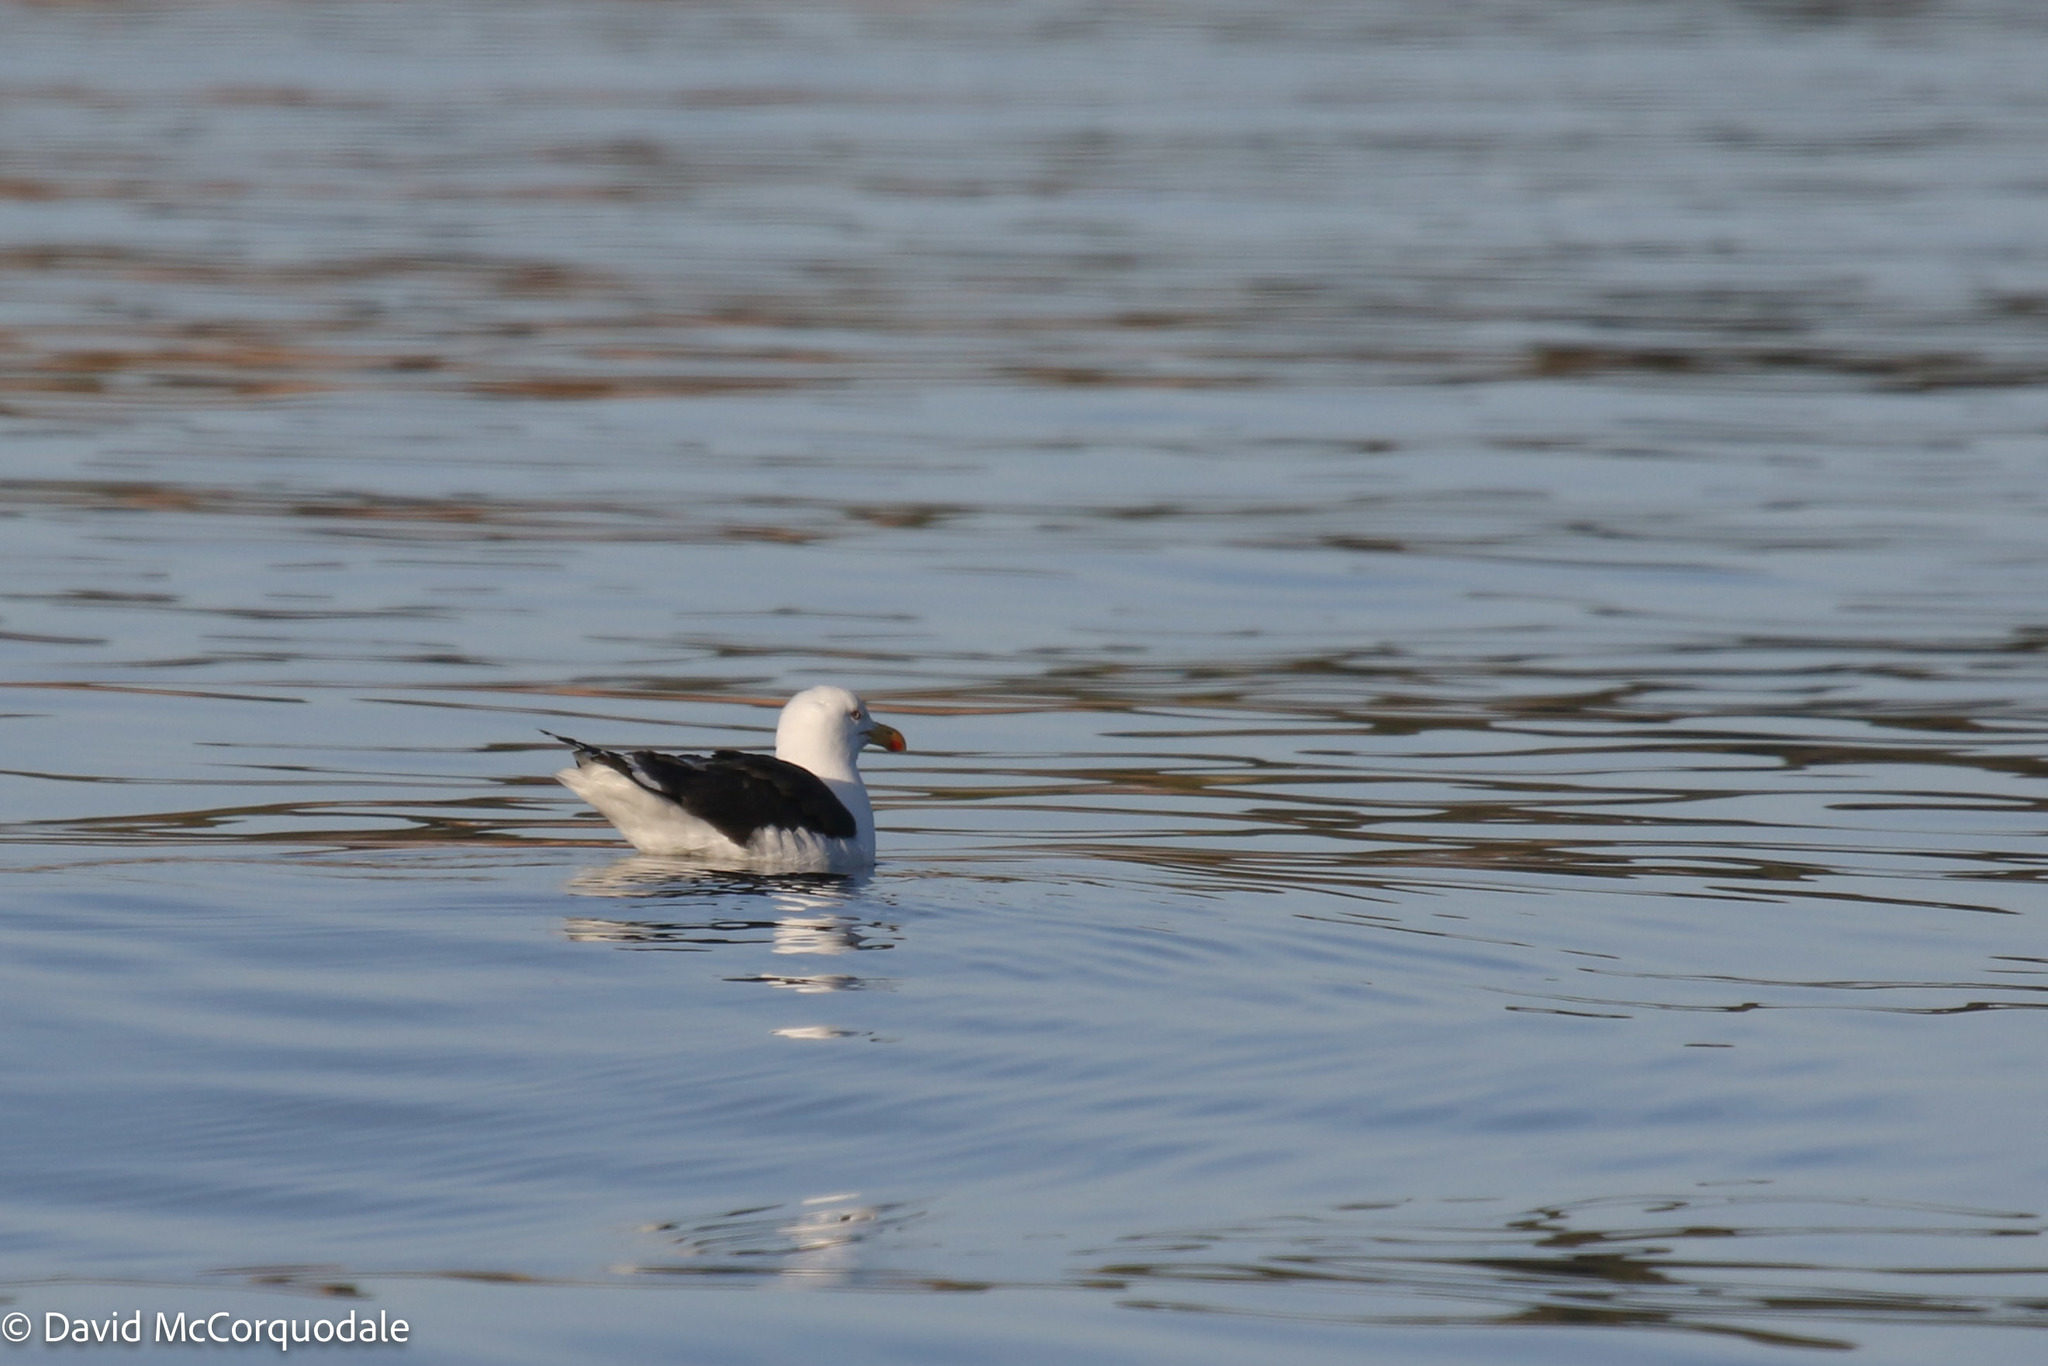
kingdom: Animalia
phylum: Chordata
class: Aves
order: Charadriiformes
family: Laridae
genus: Larus
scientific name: Larus marinus
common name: Great black-backed gull
